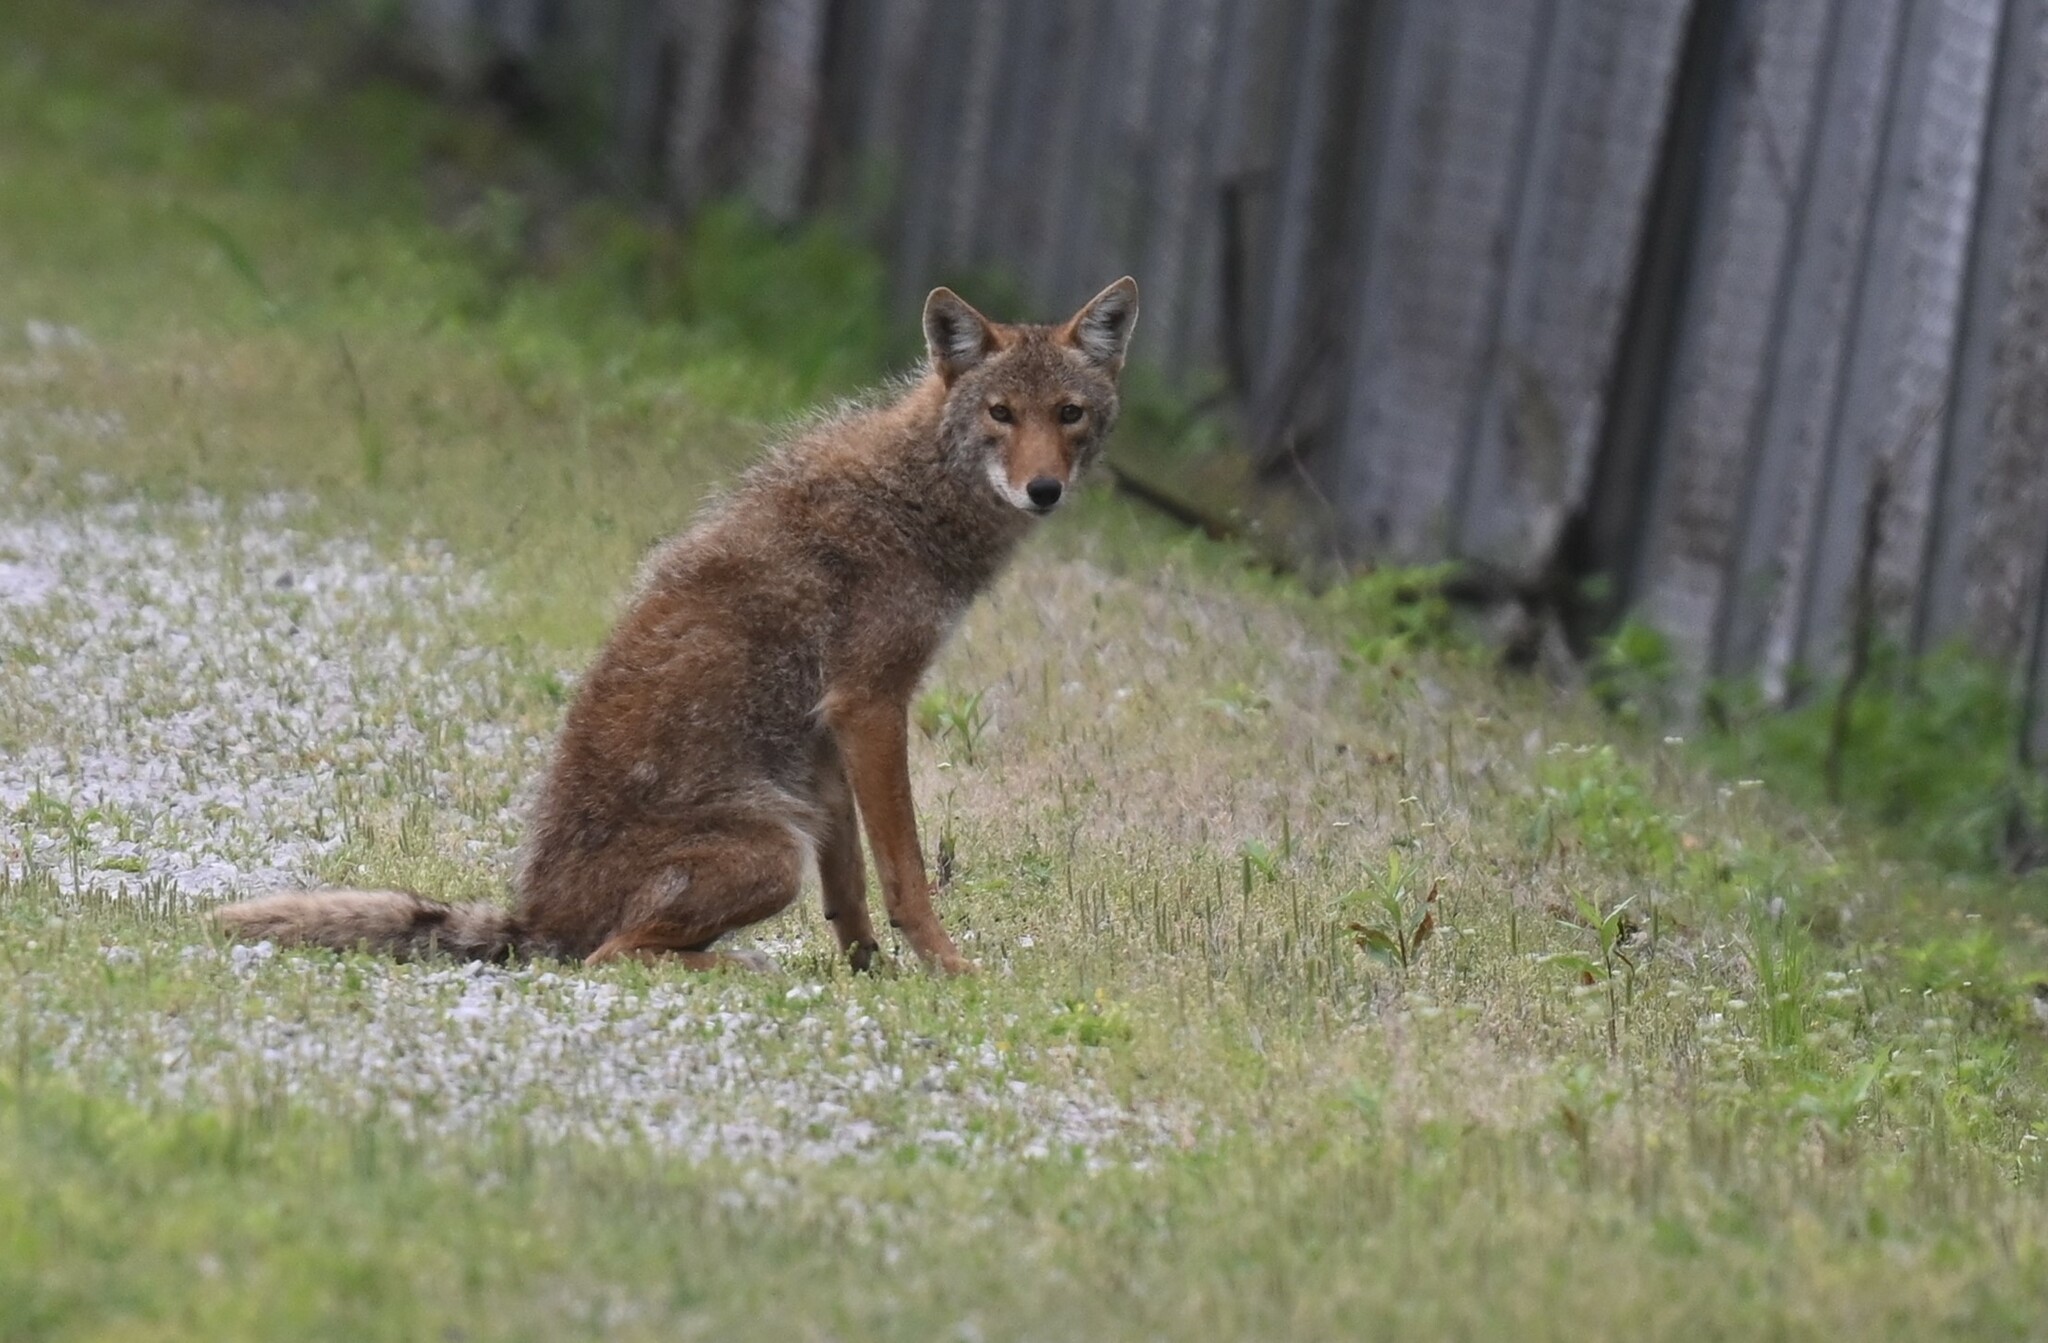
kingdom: Animalia
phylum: Chordata
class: Mammalia
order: Carnivora
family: Canidae
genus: Canis
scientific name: Canis latrans
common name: Coyote
